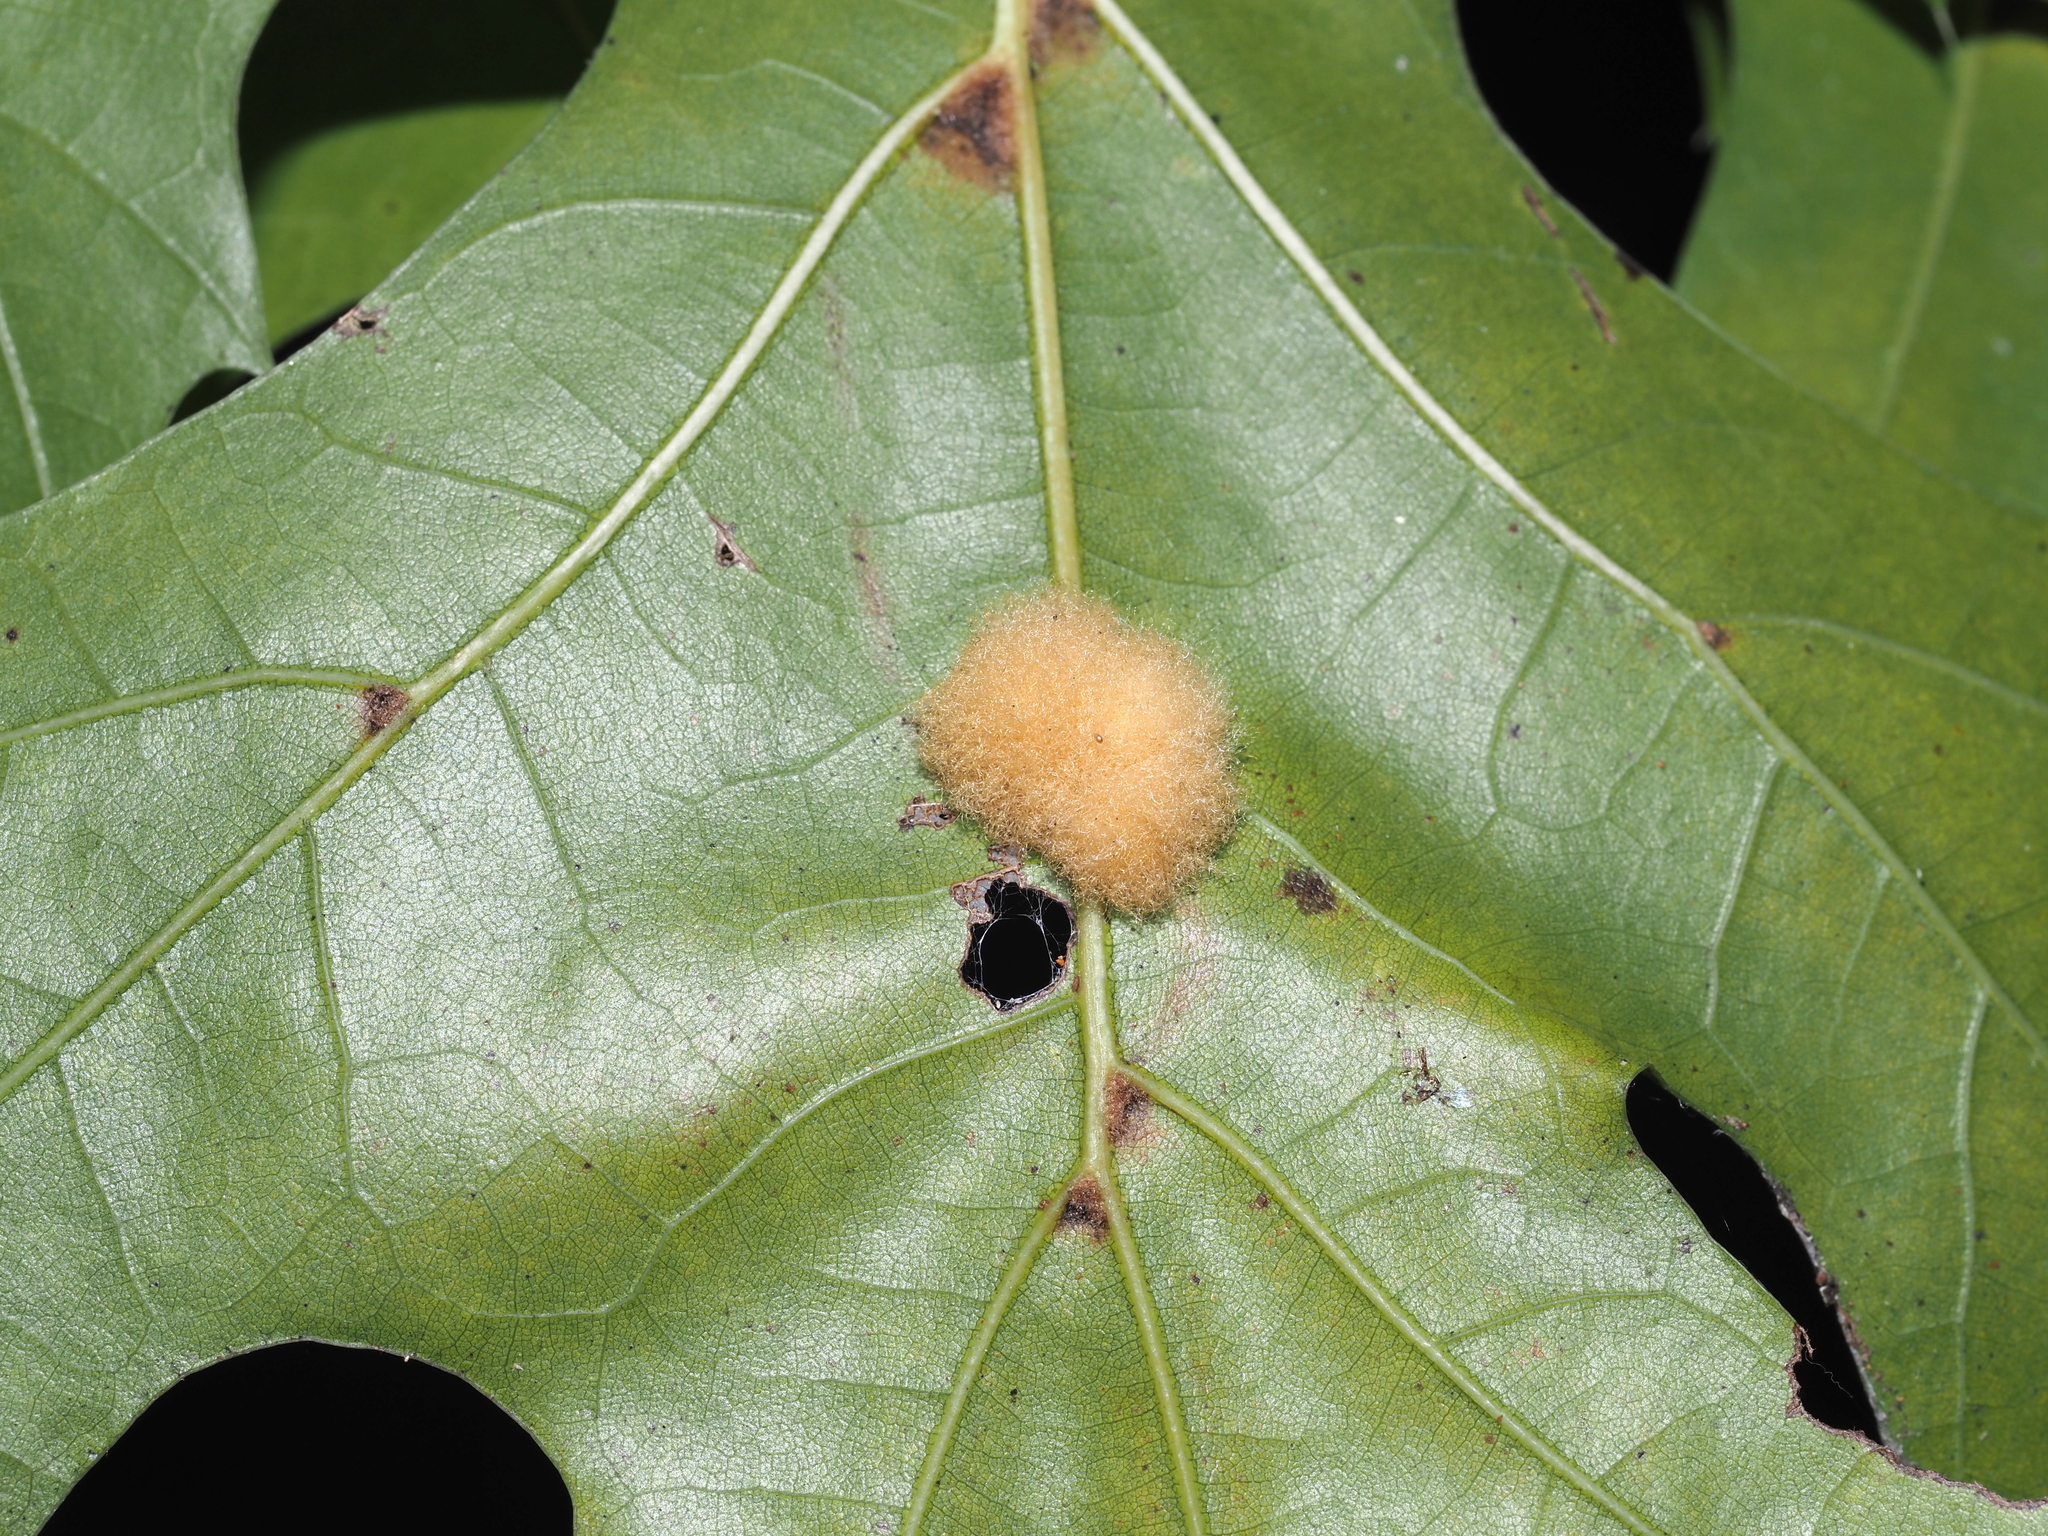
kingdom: Animalia
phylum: Arthropoda
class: Insecta
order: Hymenoptera
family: Cynipidae
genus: Callirhytis
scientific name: Callirhytis
